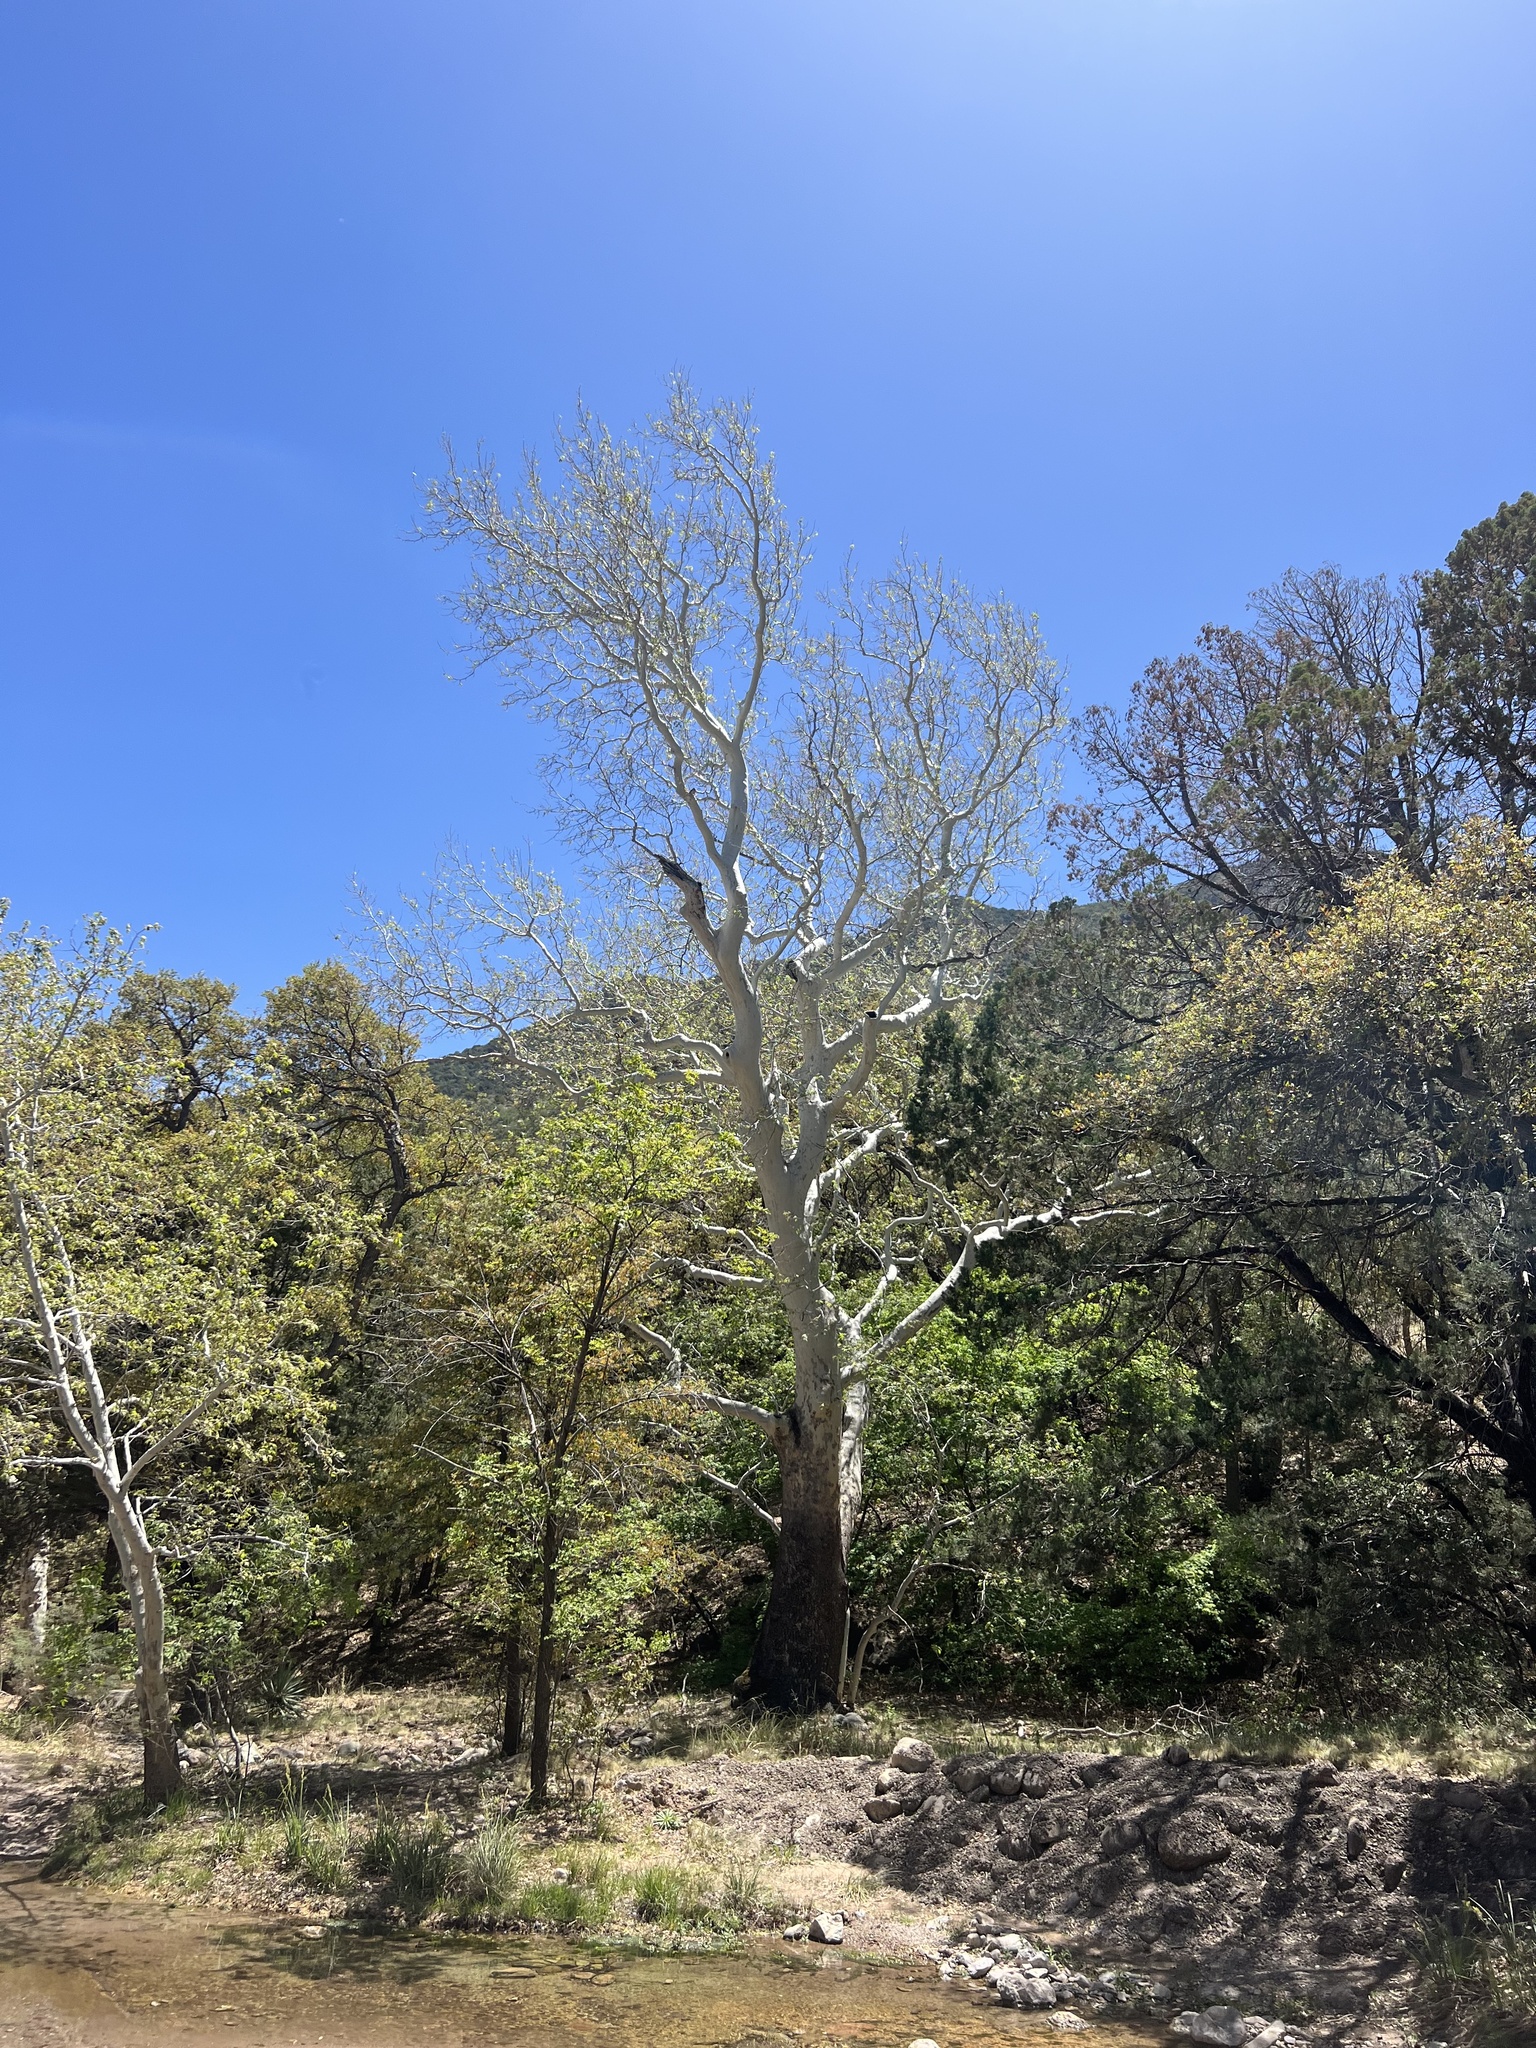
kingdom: Plantae
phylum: Tracheophyta
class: Magnoliopsida
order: Proteales
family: Platanaceae
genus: Platanus
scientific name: Platanus wrightii
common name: Arizona sycamore
